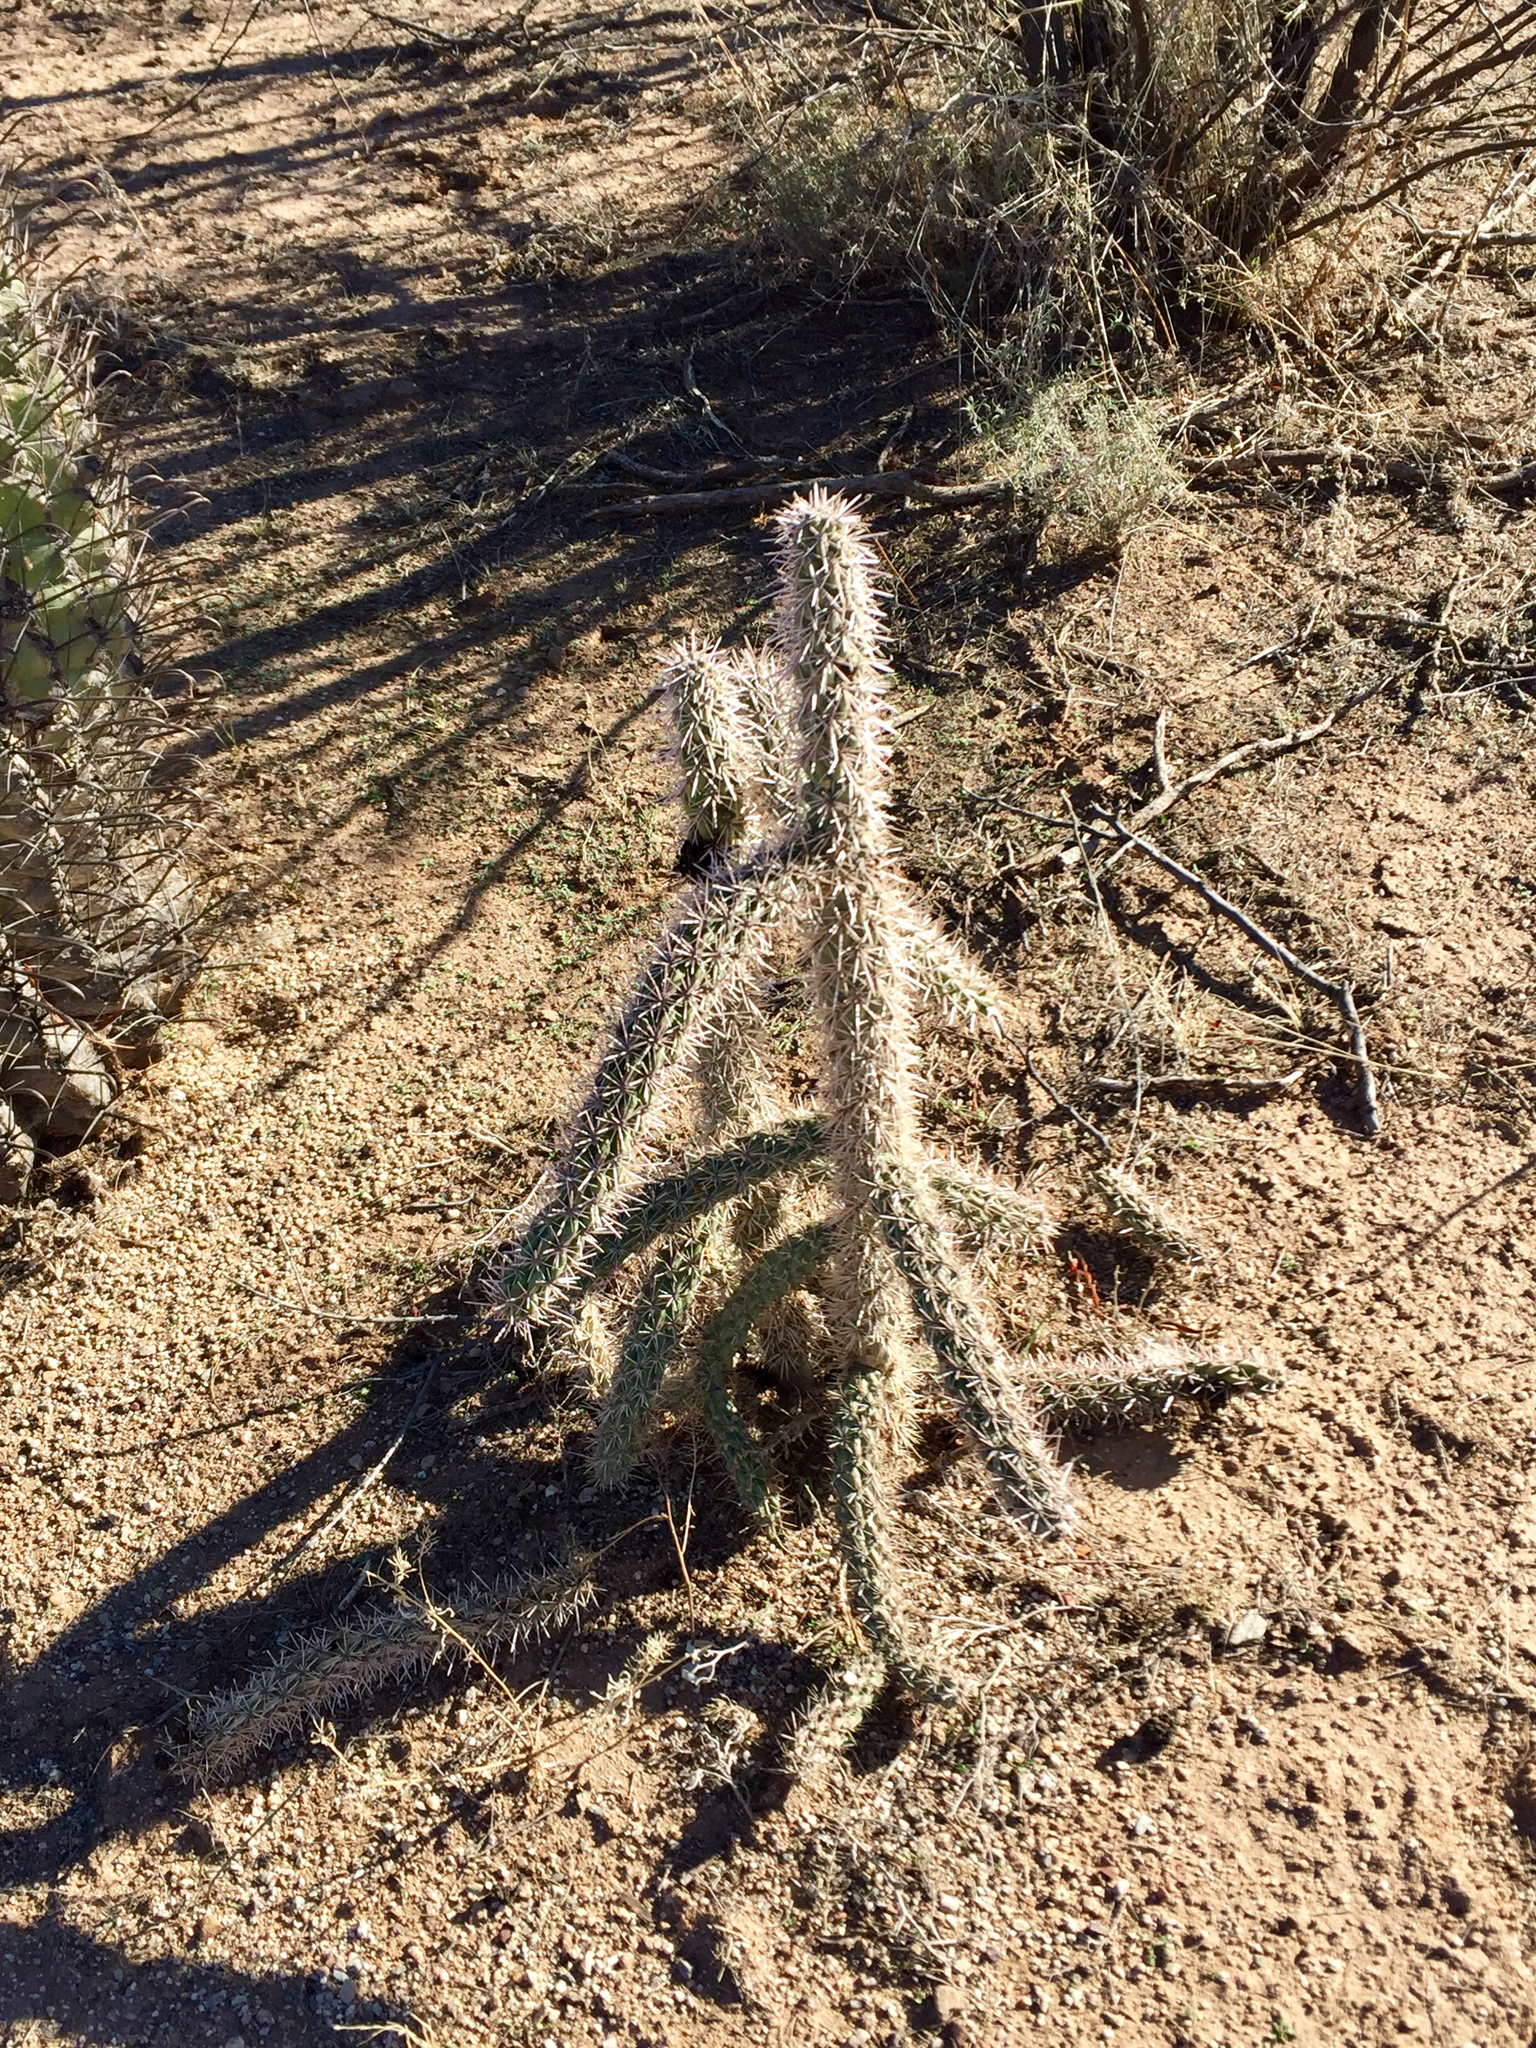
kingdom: Plantae
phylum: Tracheophyta
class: Magnoliopsida
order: Caryophyllales
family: Cactaceae
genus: Cylindropuntia
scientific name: Cylindropuntia imbricata
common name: Candelabrum cactus
